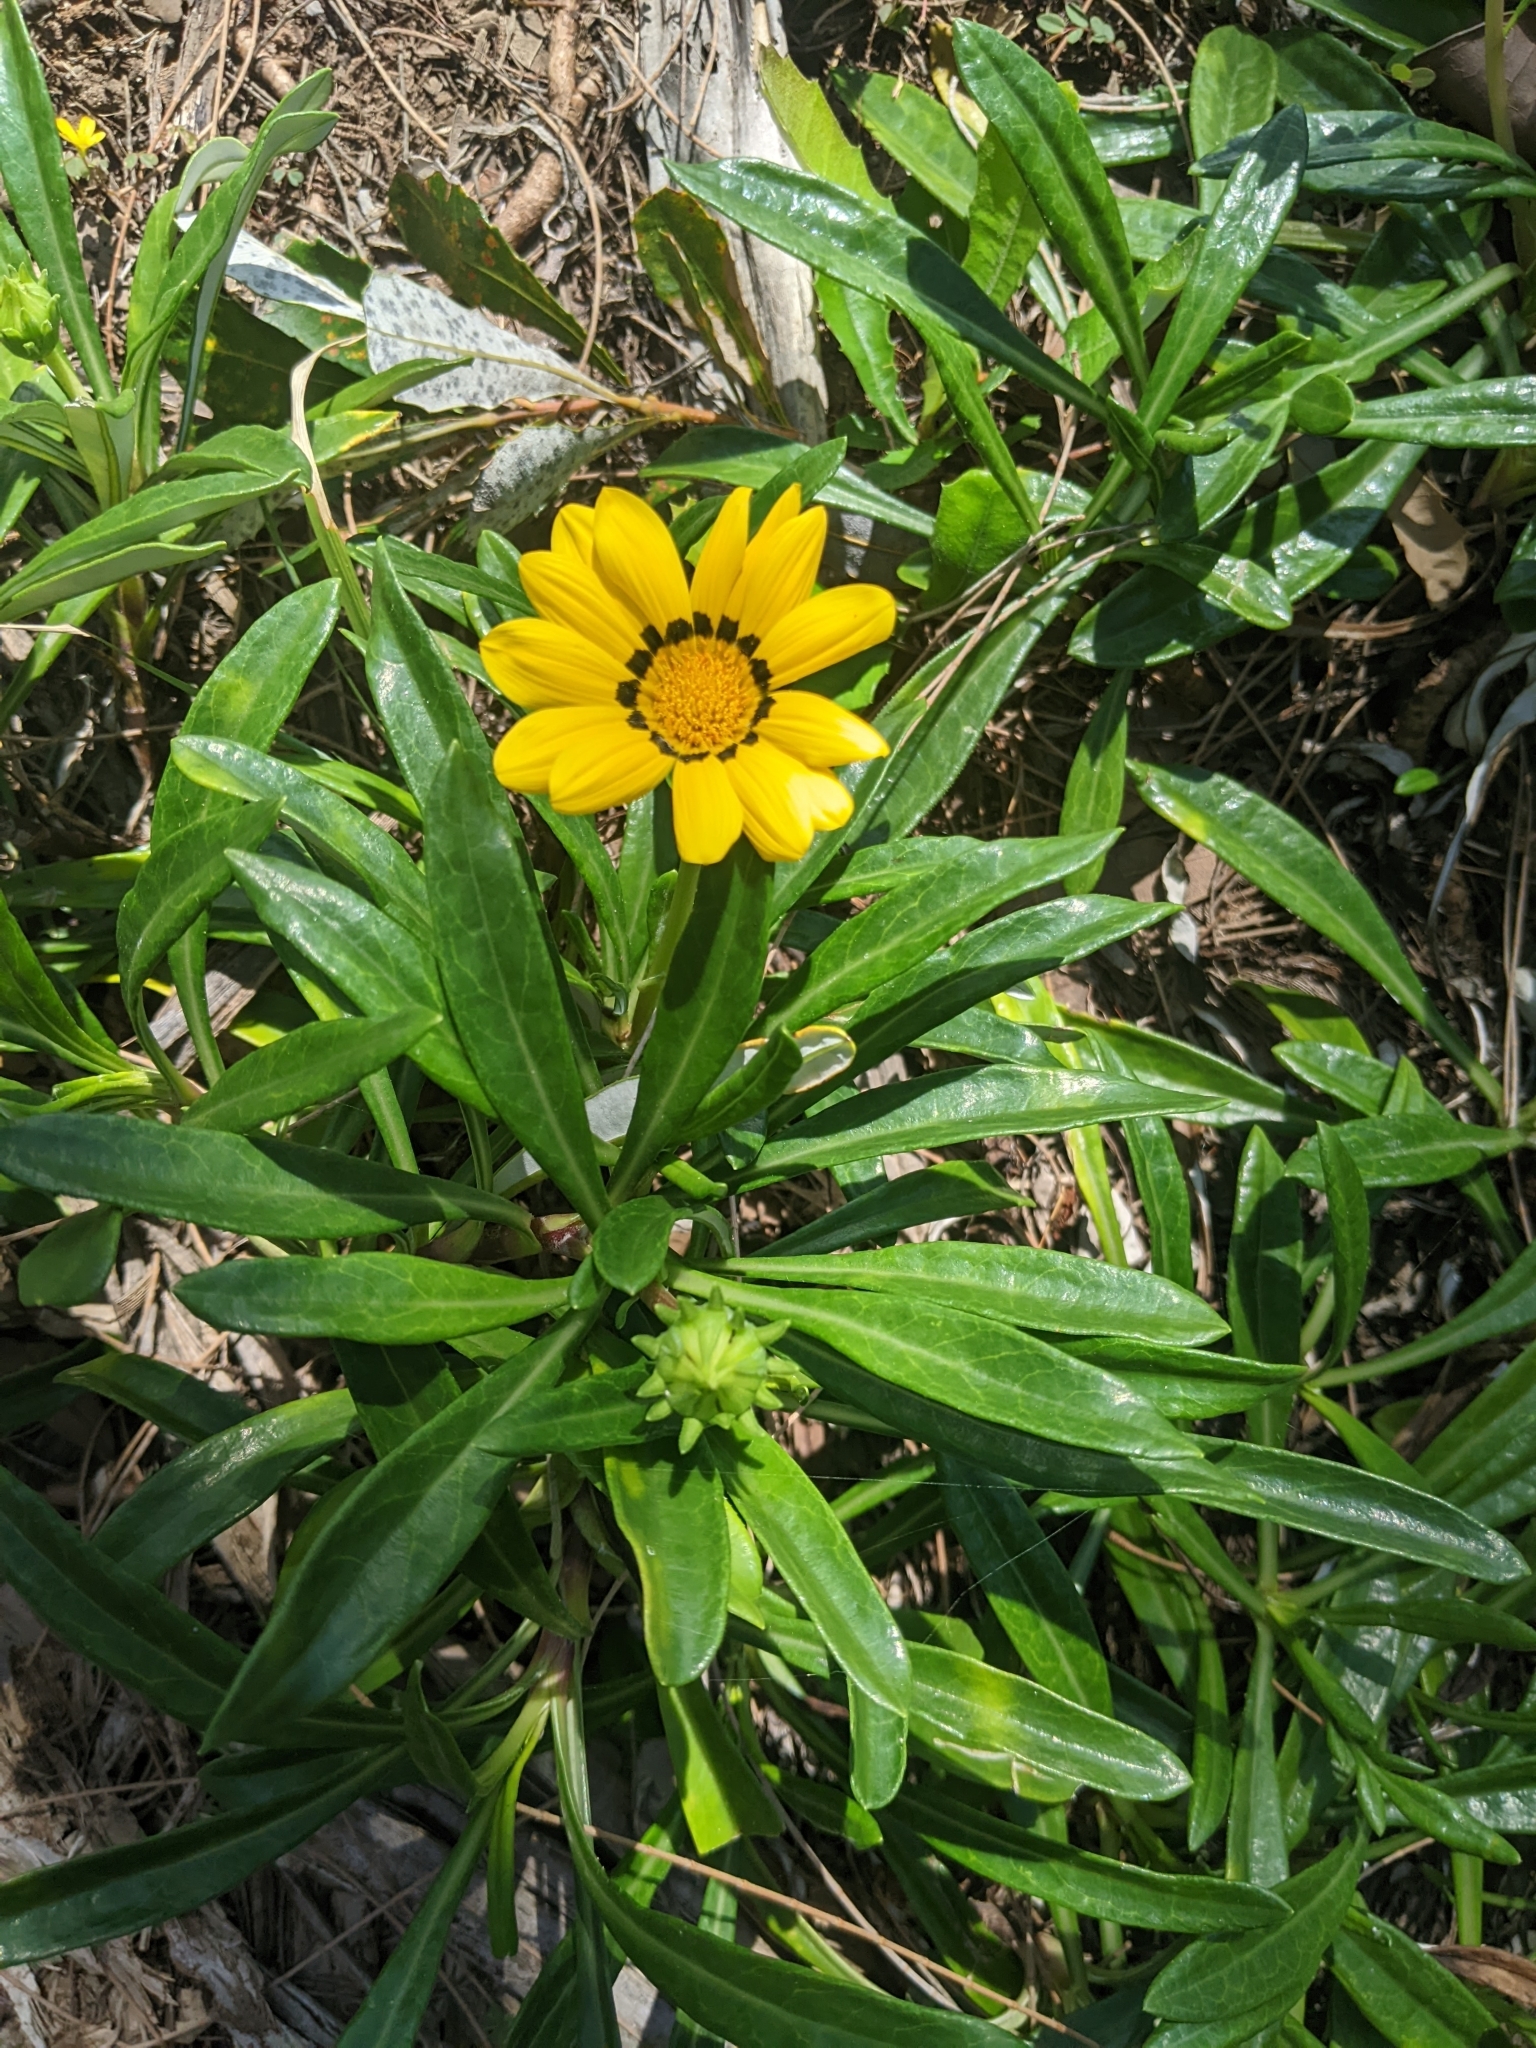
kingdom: Plantae
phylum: Tracheophyta
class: Magnoliopsida
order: Asterales
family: Asteraceae
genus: Gazania
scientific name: Gazania splendens
